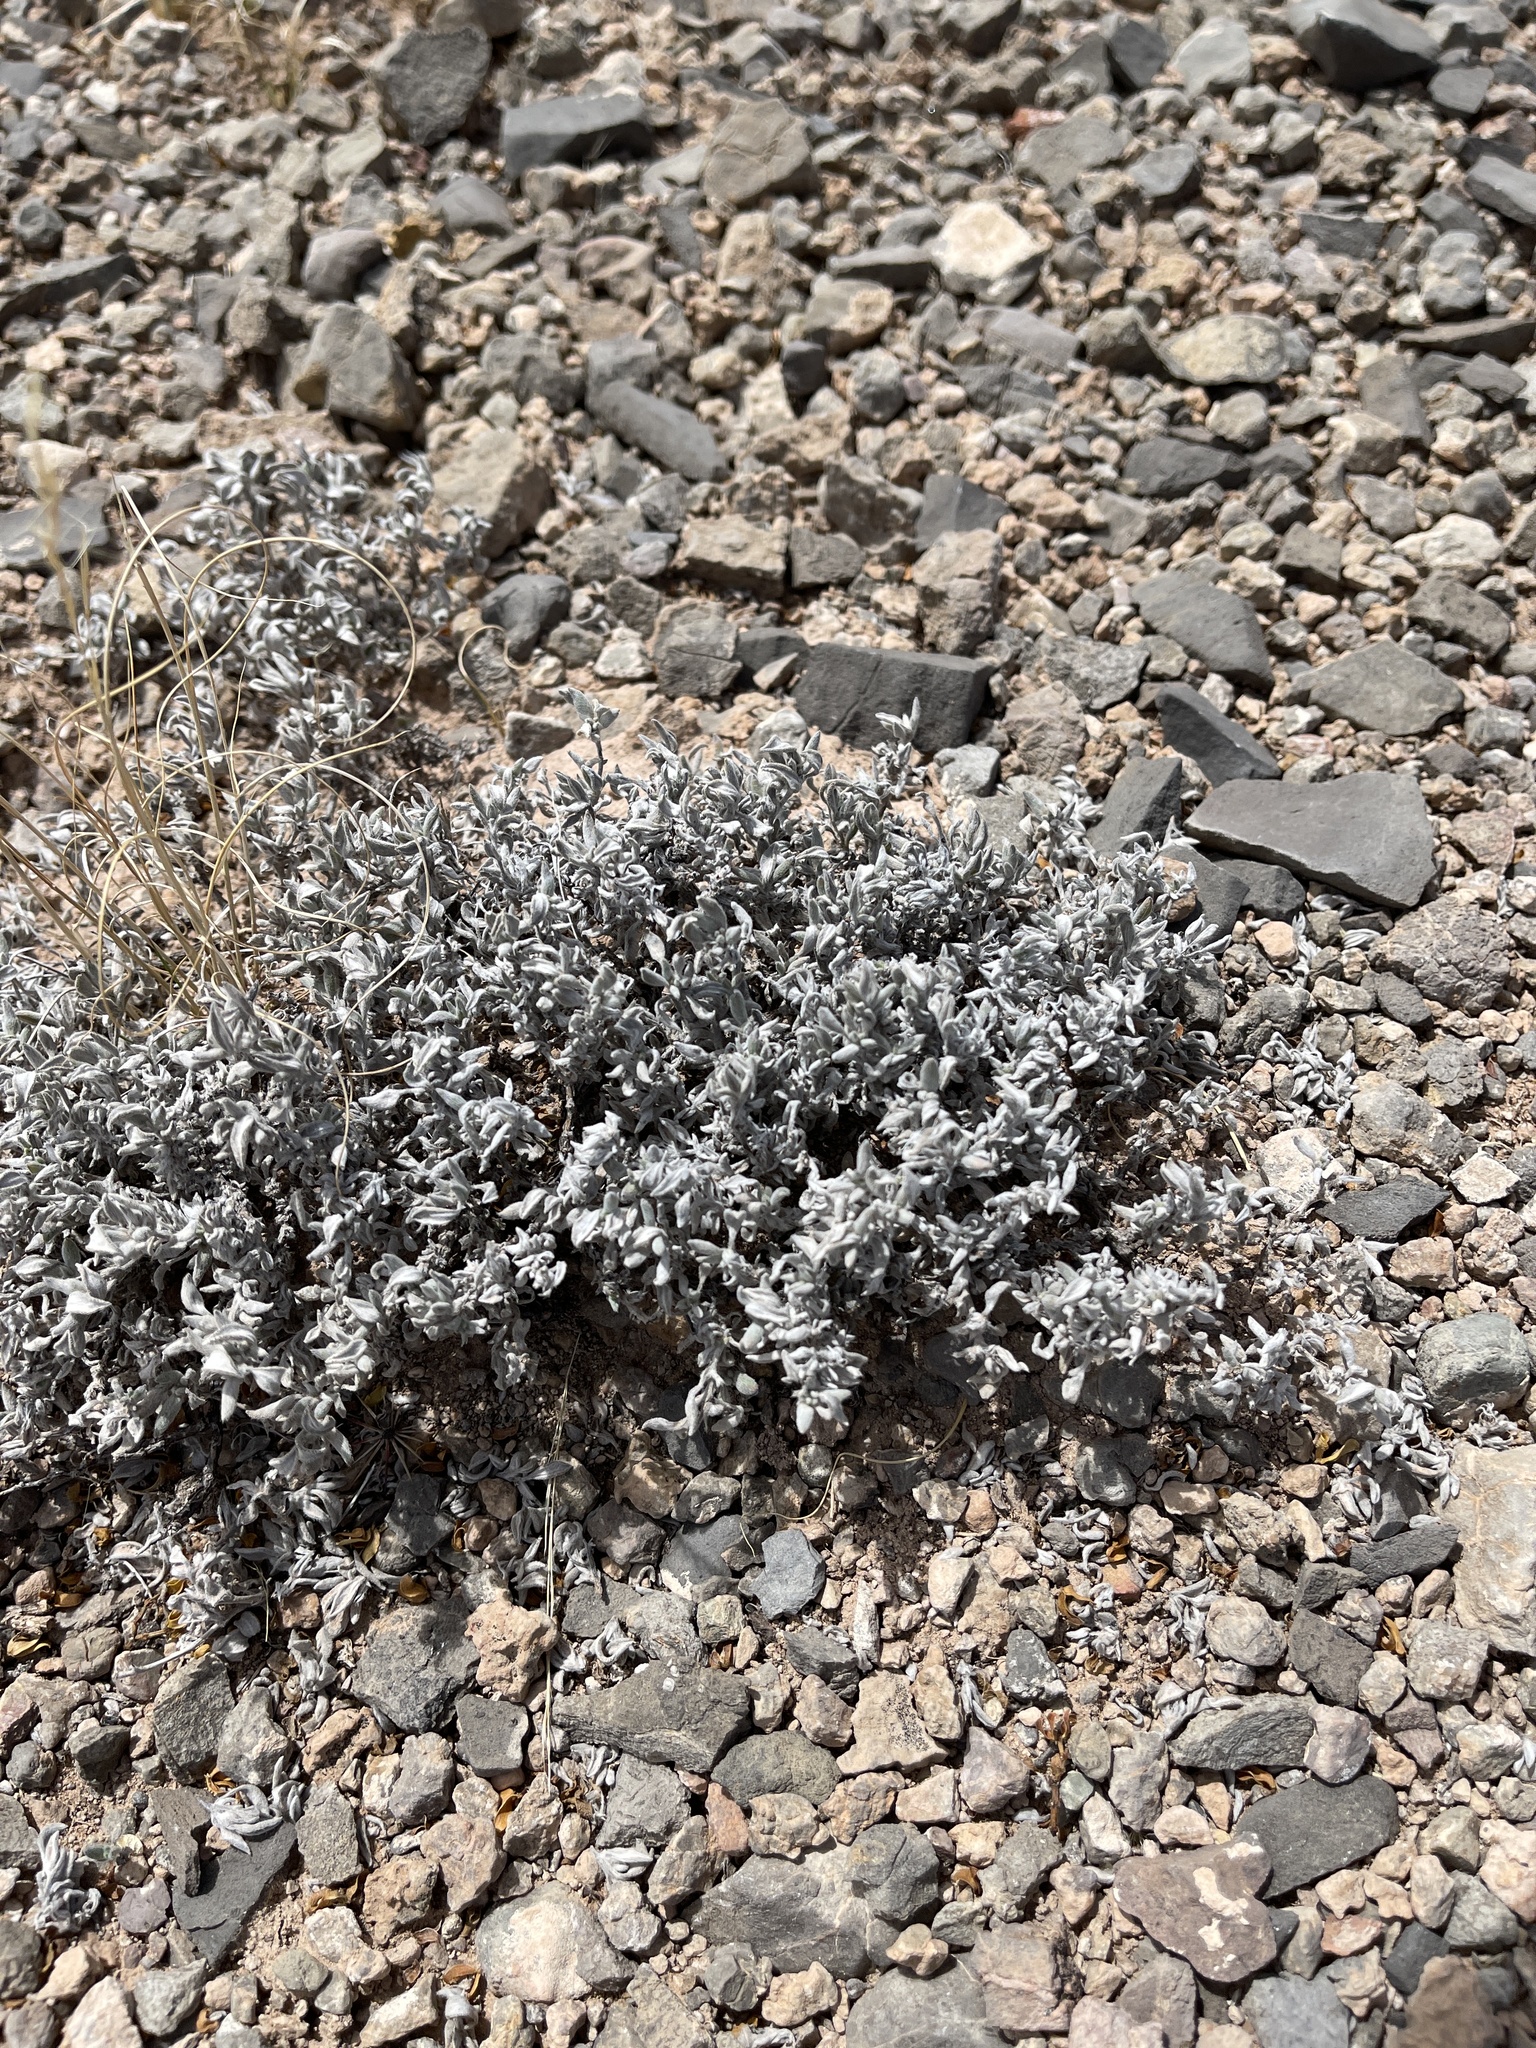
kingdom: Plantae
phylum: Tracheophyta
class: Magnoliopsida
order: Boraginales
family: Ehretiaceae
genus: Tiquilia
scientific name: Tiquilia canescens
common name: Hairy tiquilia
